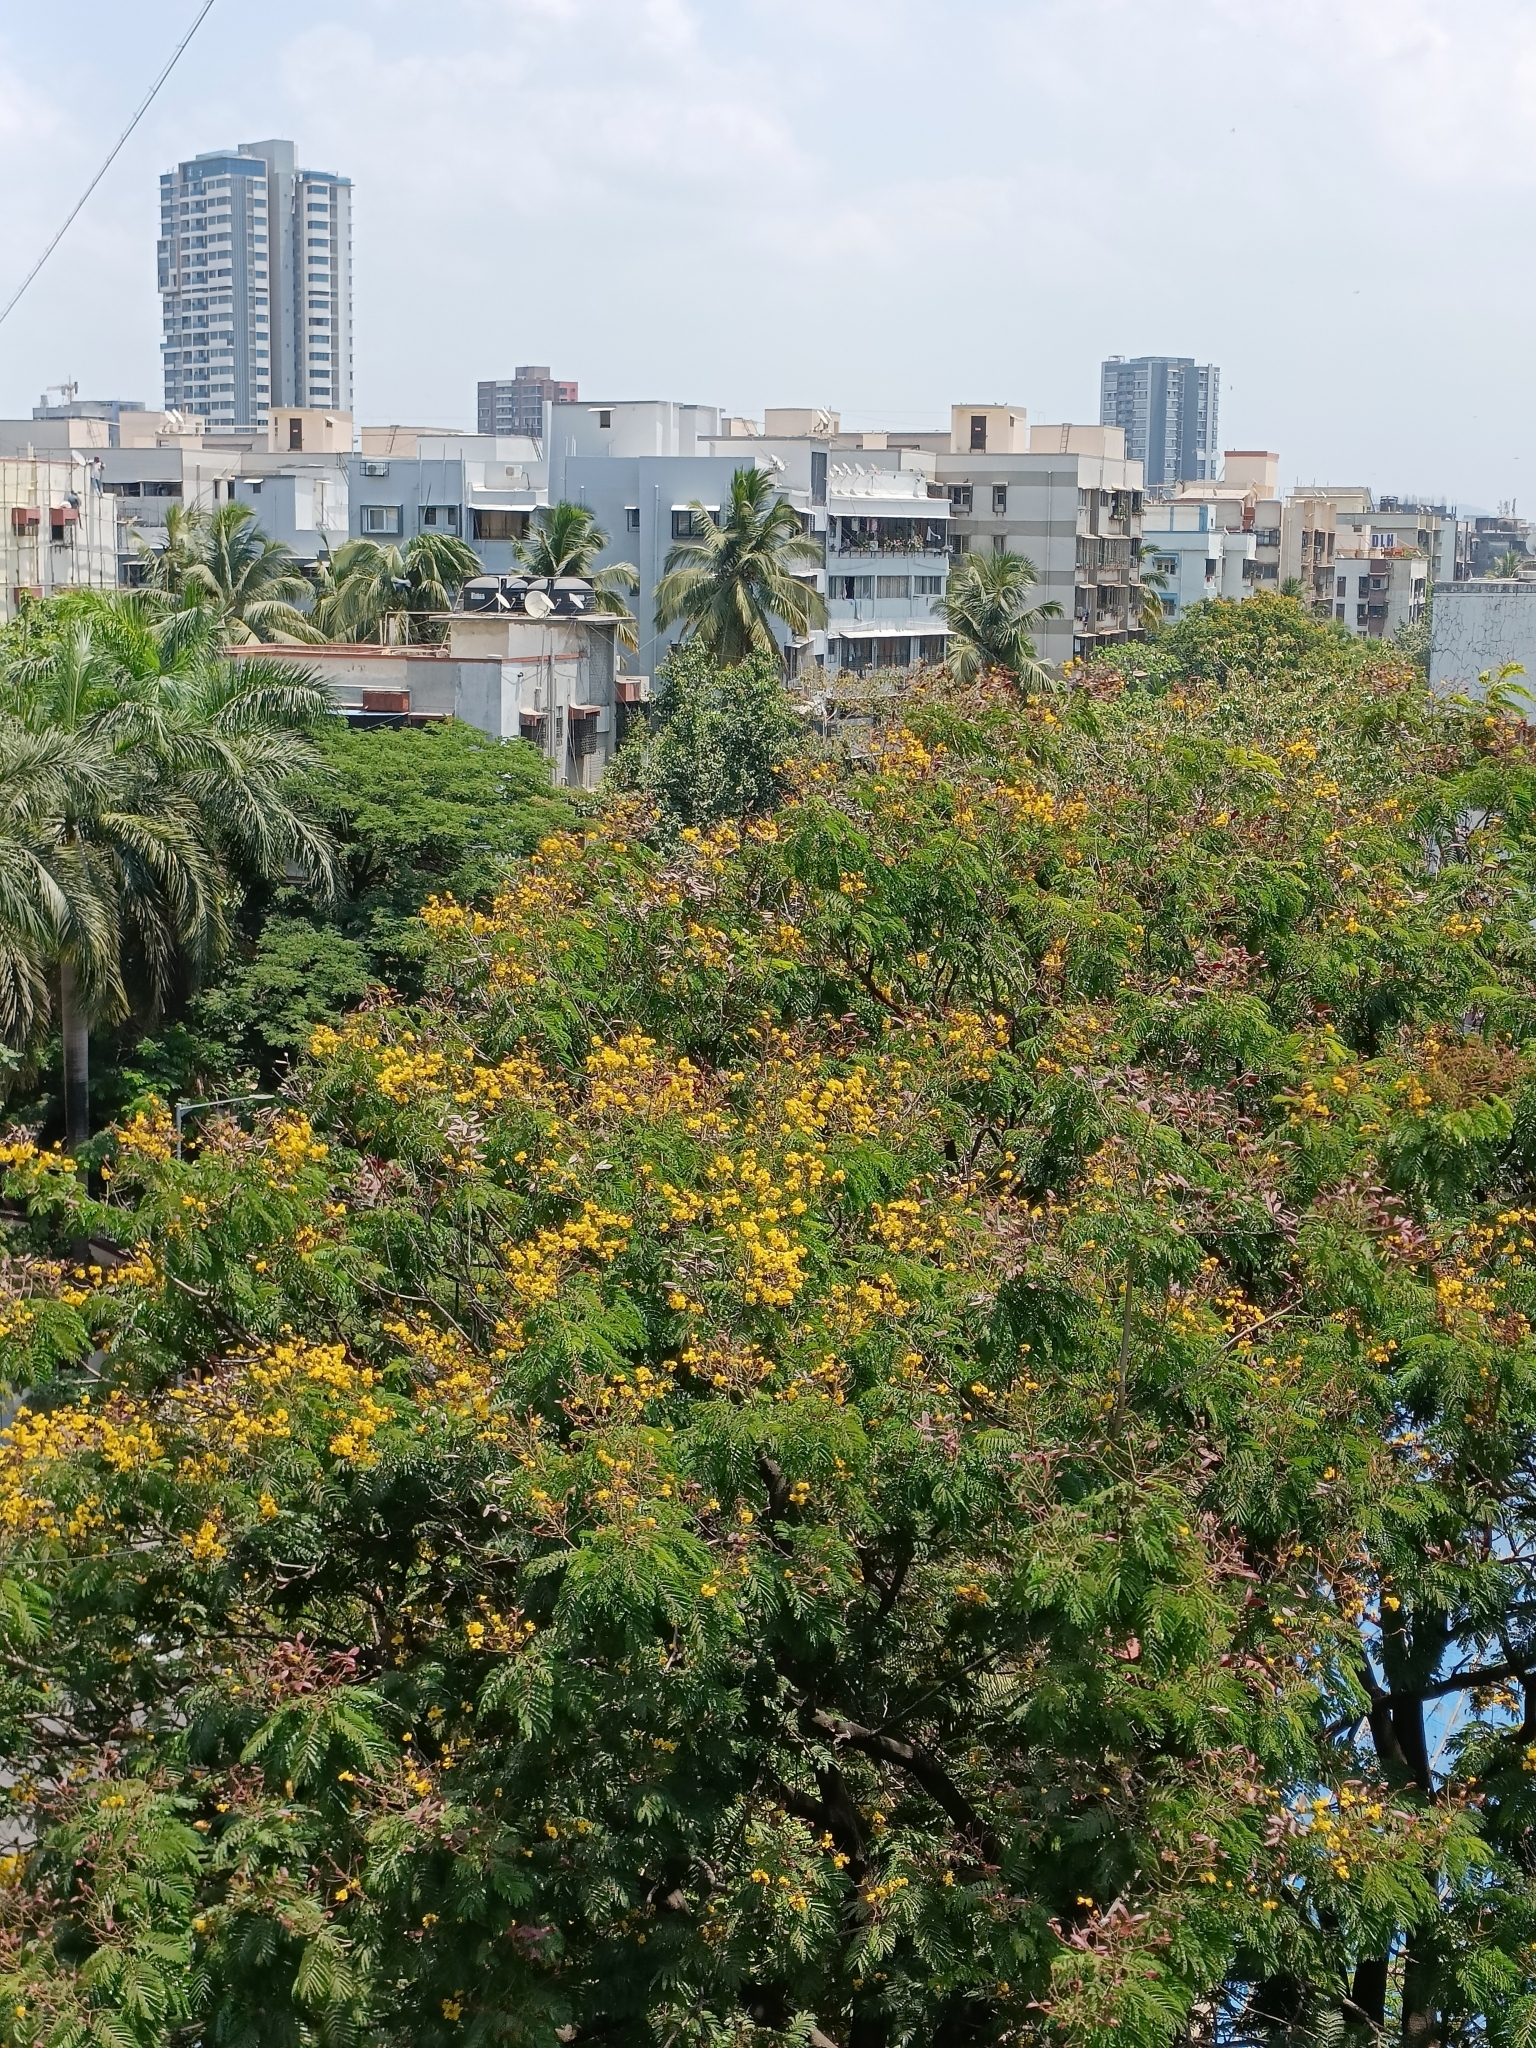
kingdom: Plantae
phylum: Tracheophyta
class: Magnoliopsida
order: Fabales
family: Fabaceae
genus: Peltophorum
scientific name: Peltophorum pterocarpum
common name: Yellow flame
